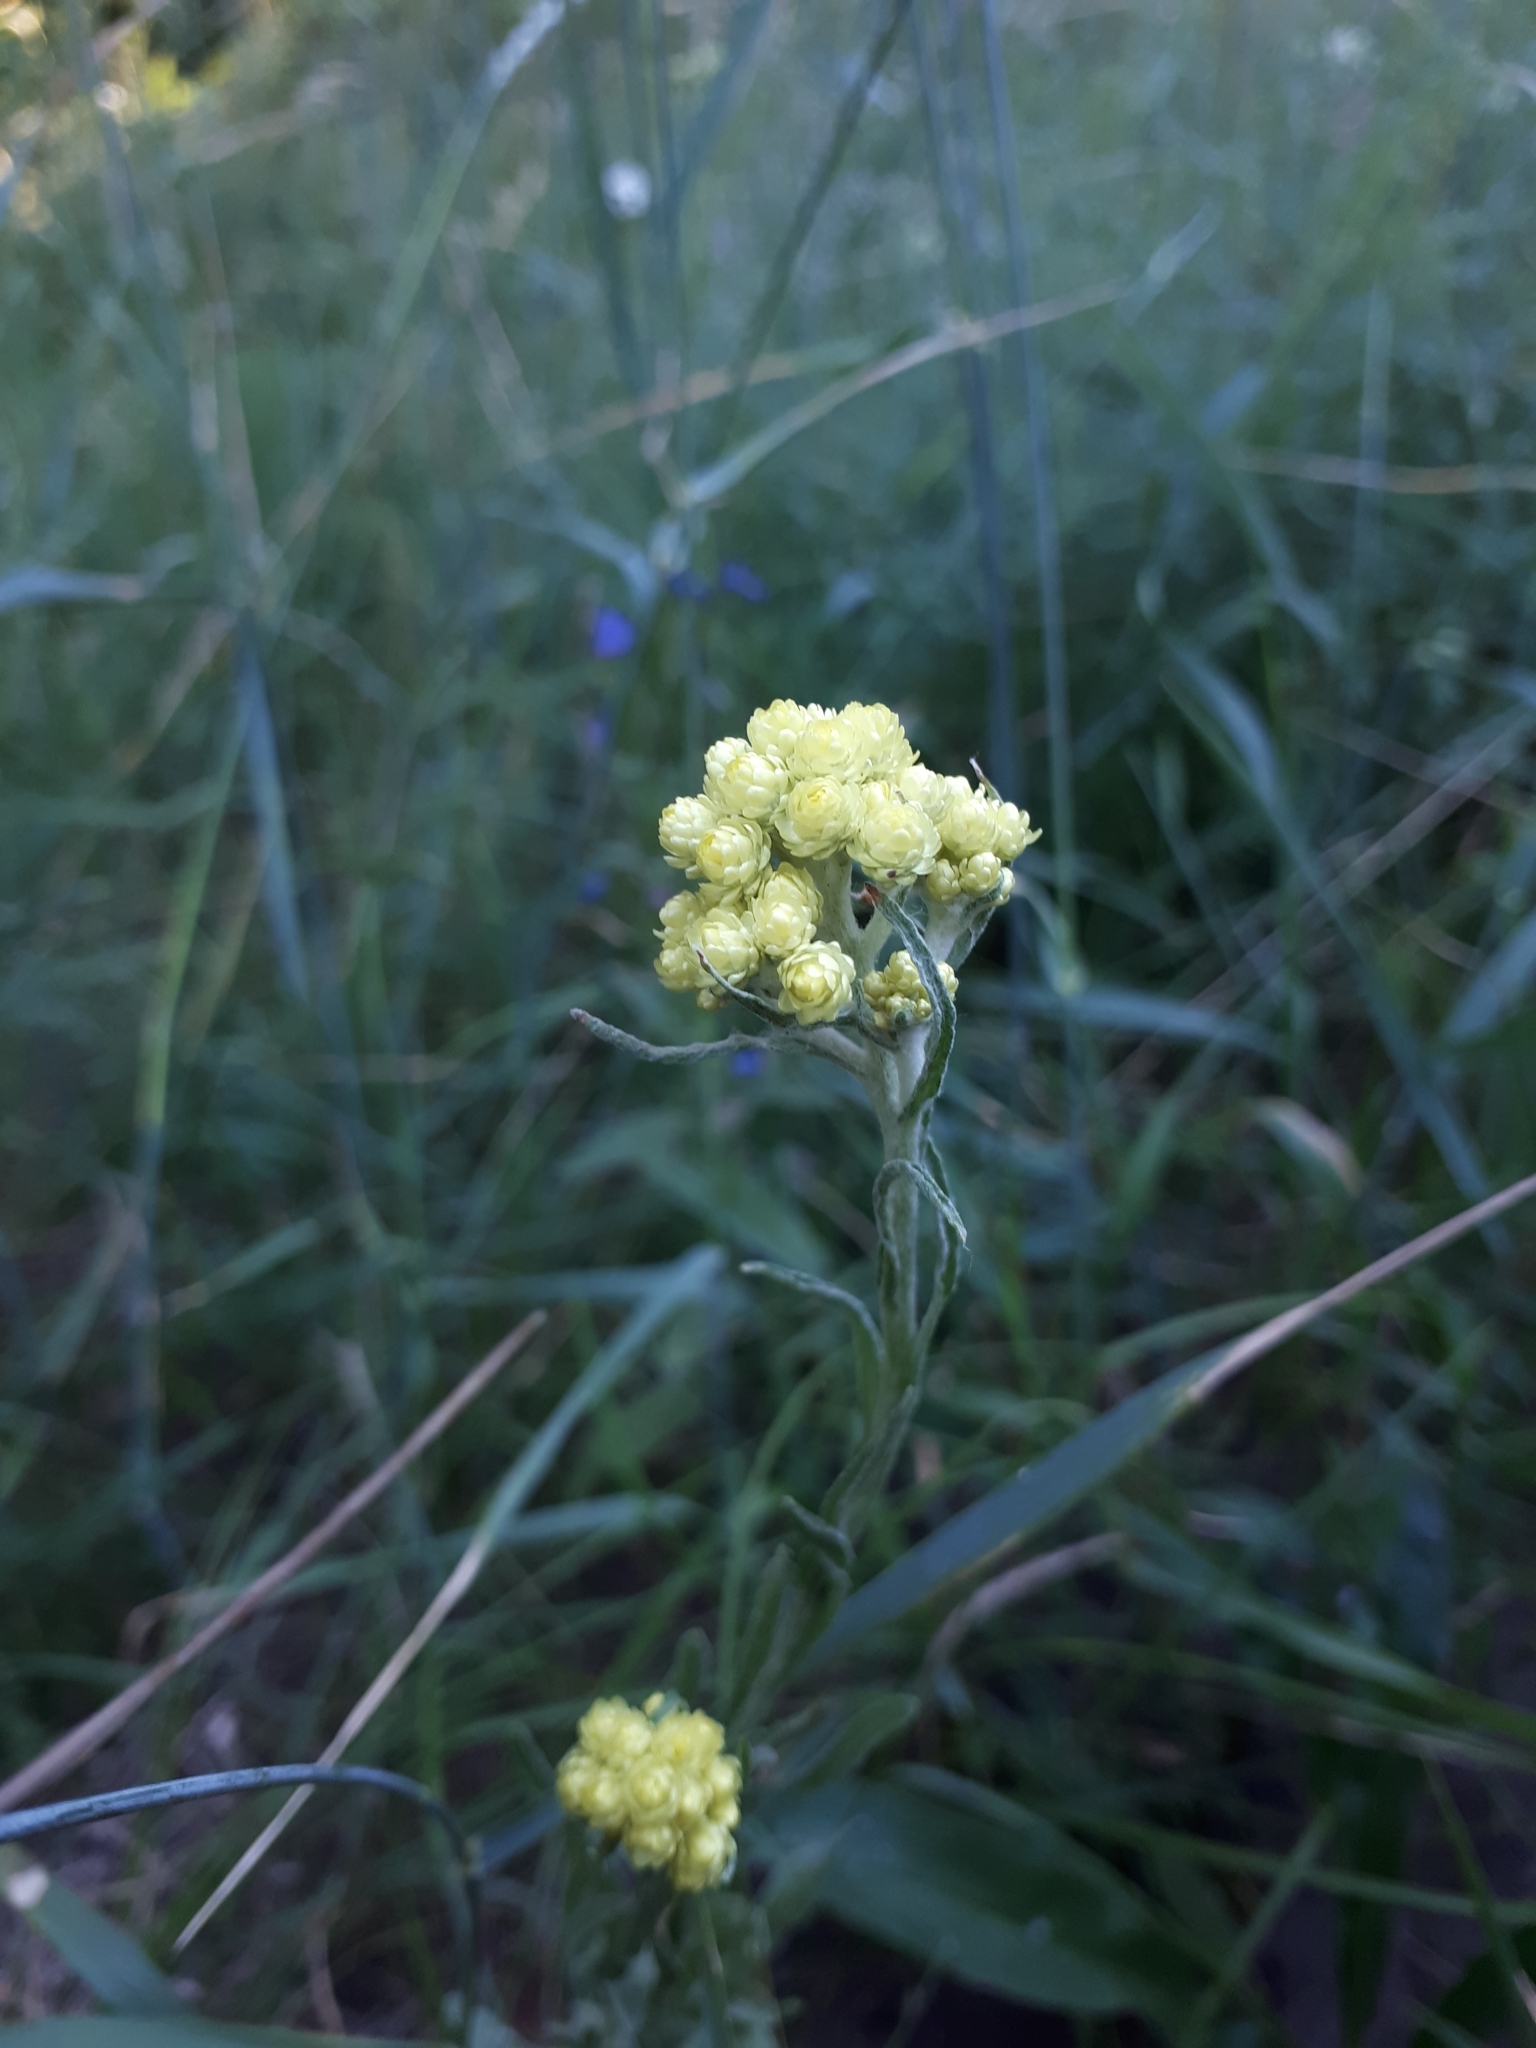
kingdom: Plantae
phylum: Tracheophyta
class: Magnoliopsida
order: Asterales
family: Asteraceae
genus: Helichrysum
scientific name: Helichrysum arenarium
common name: Strawflower
